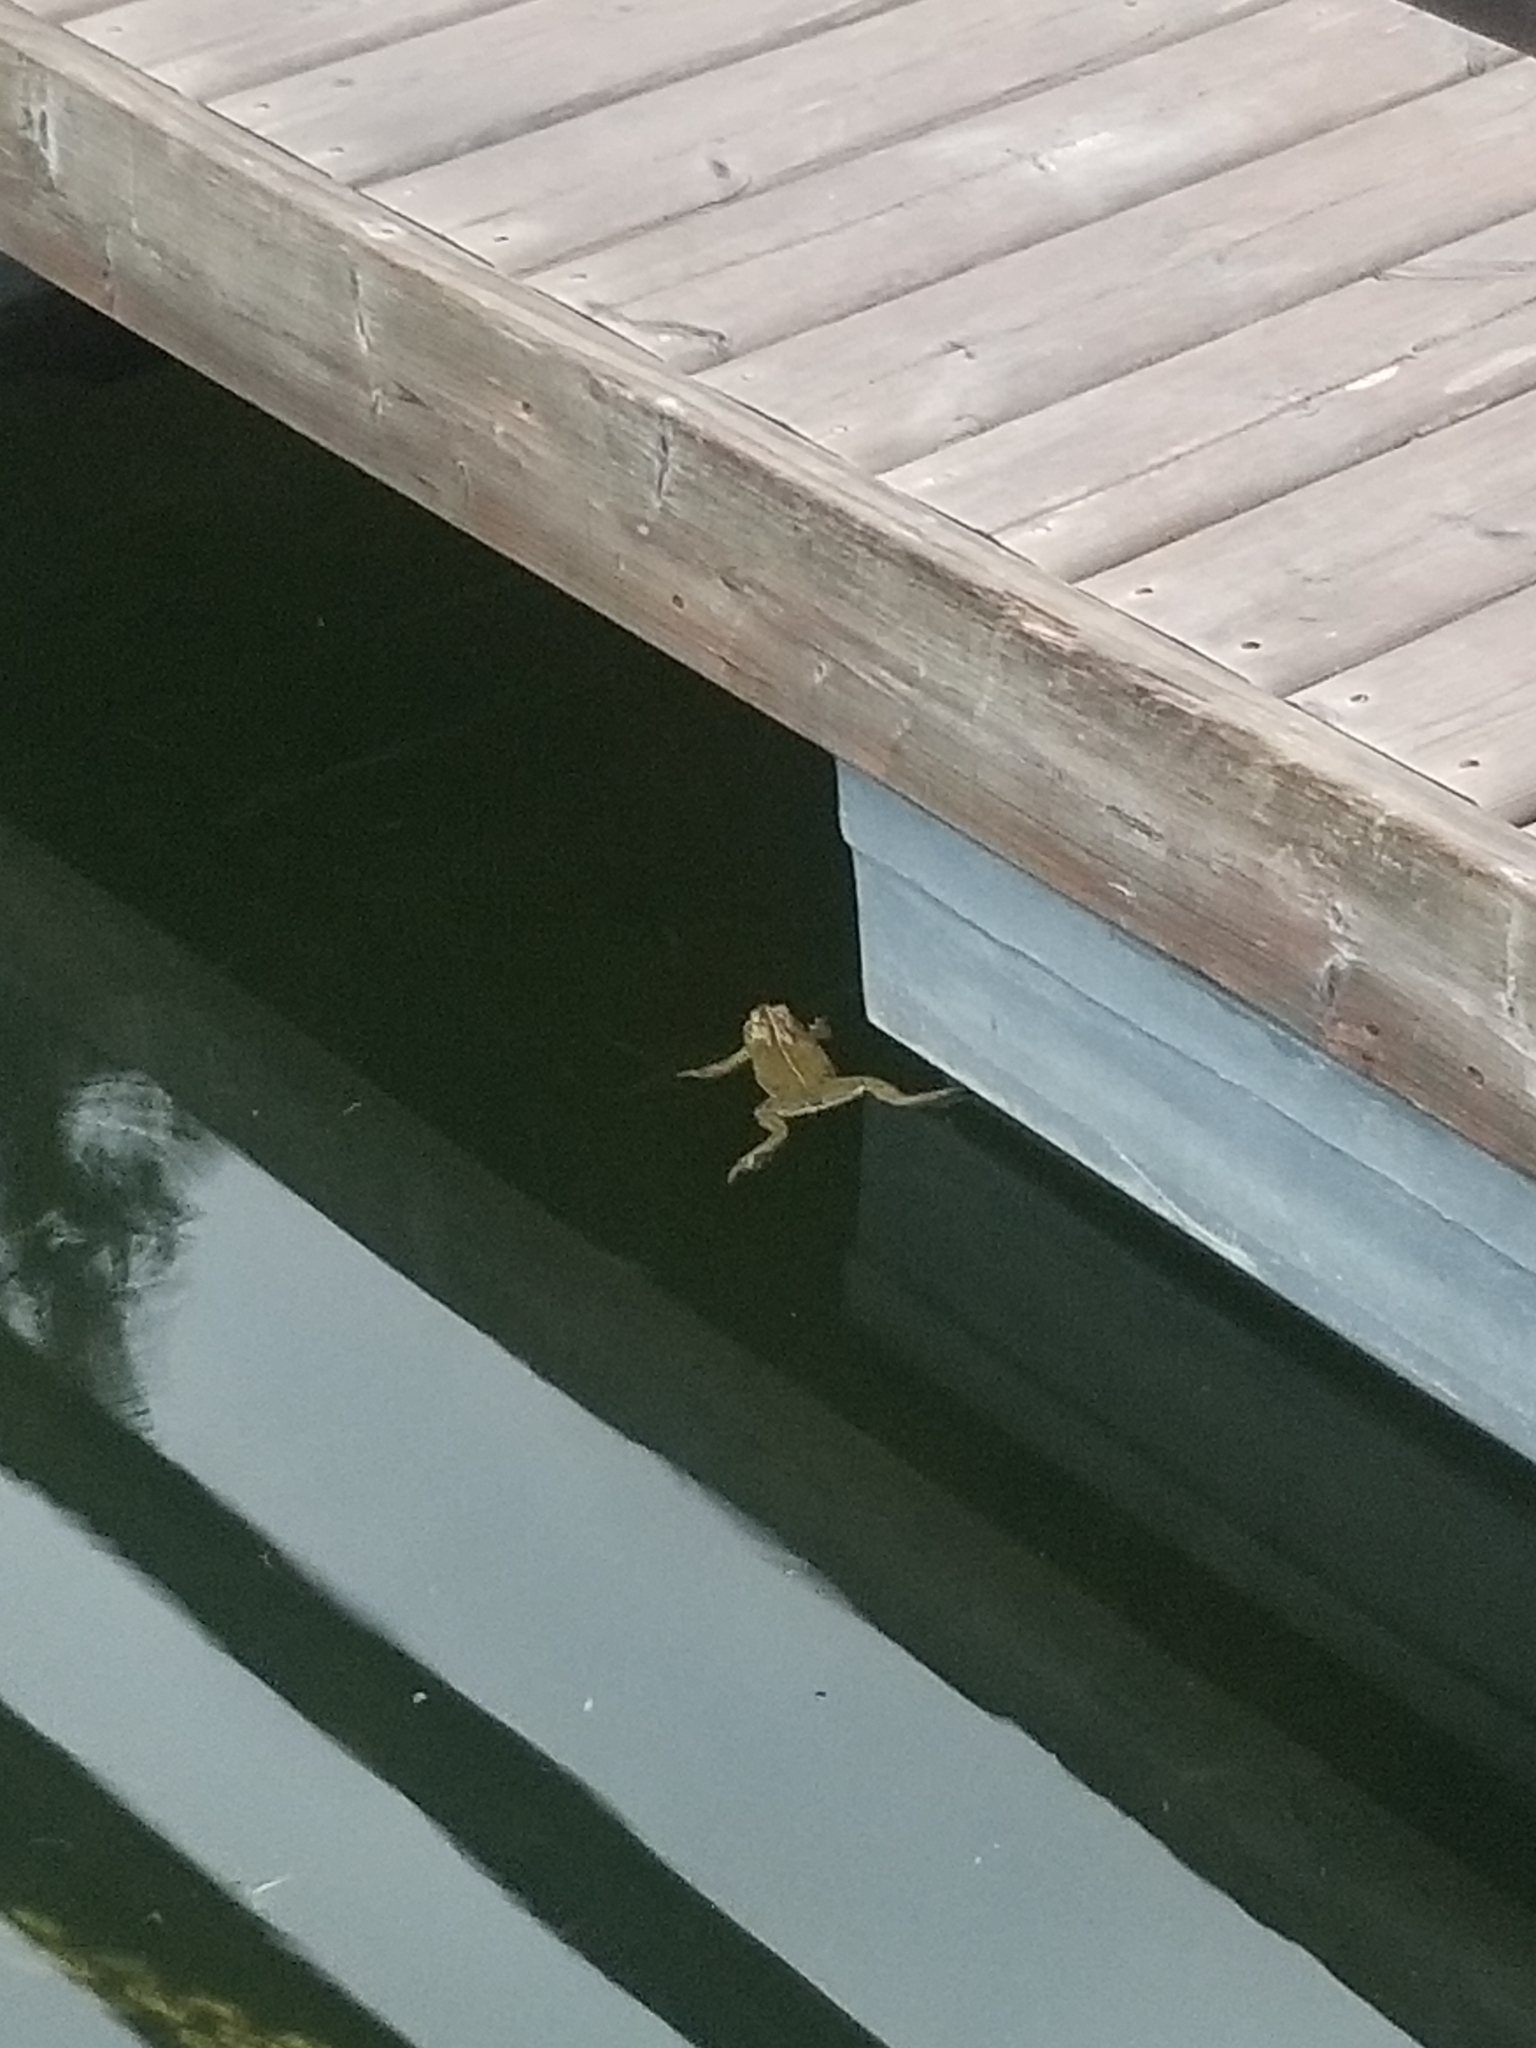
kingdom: Animalia
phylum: Chordata
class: Amphibia
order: Anura
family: Bufonidae
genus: Anaxyrus
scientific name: Anaxyrus boreas
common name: Western toad
